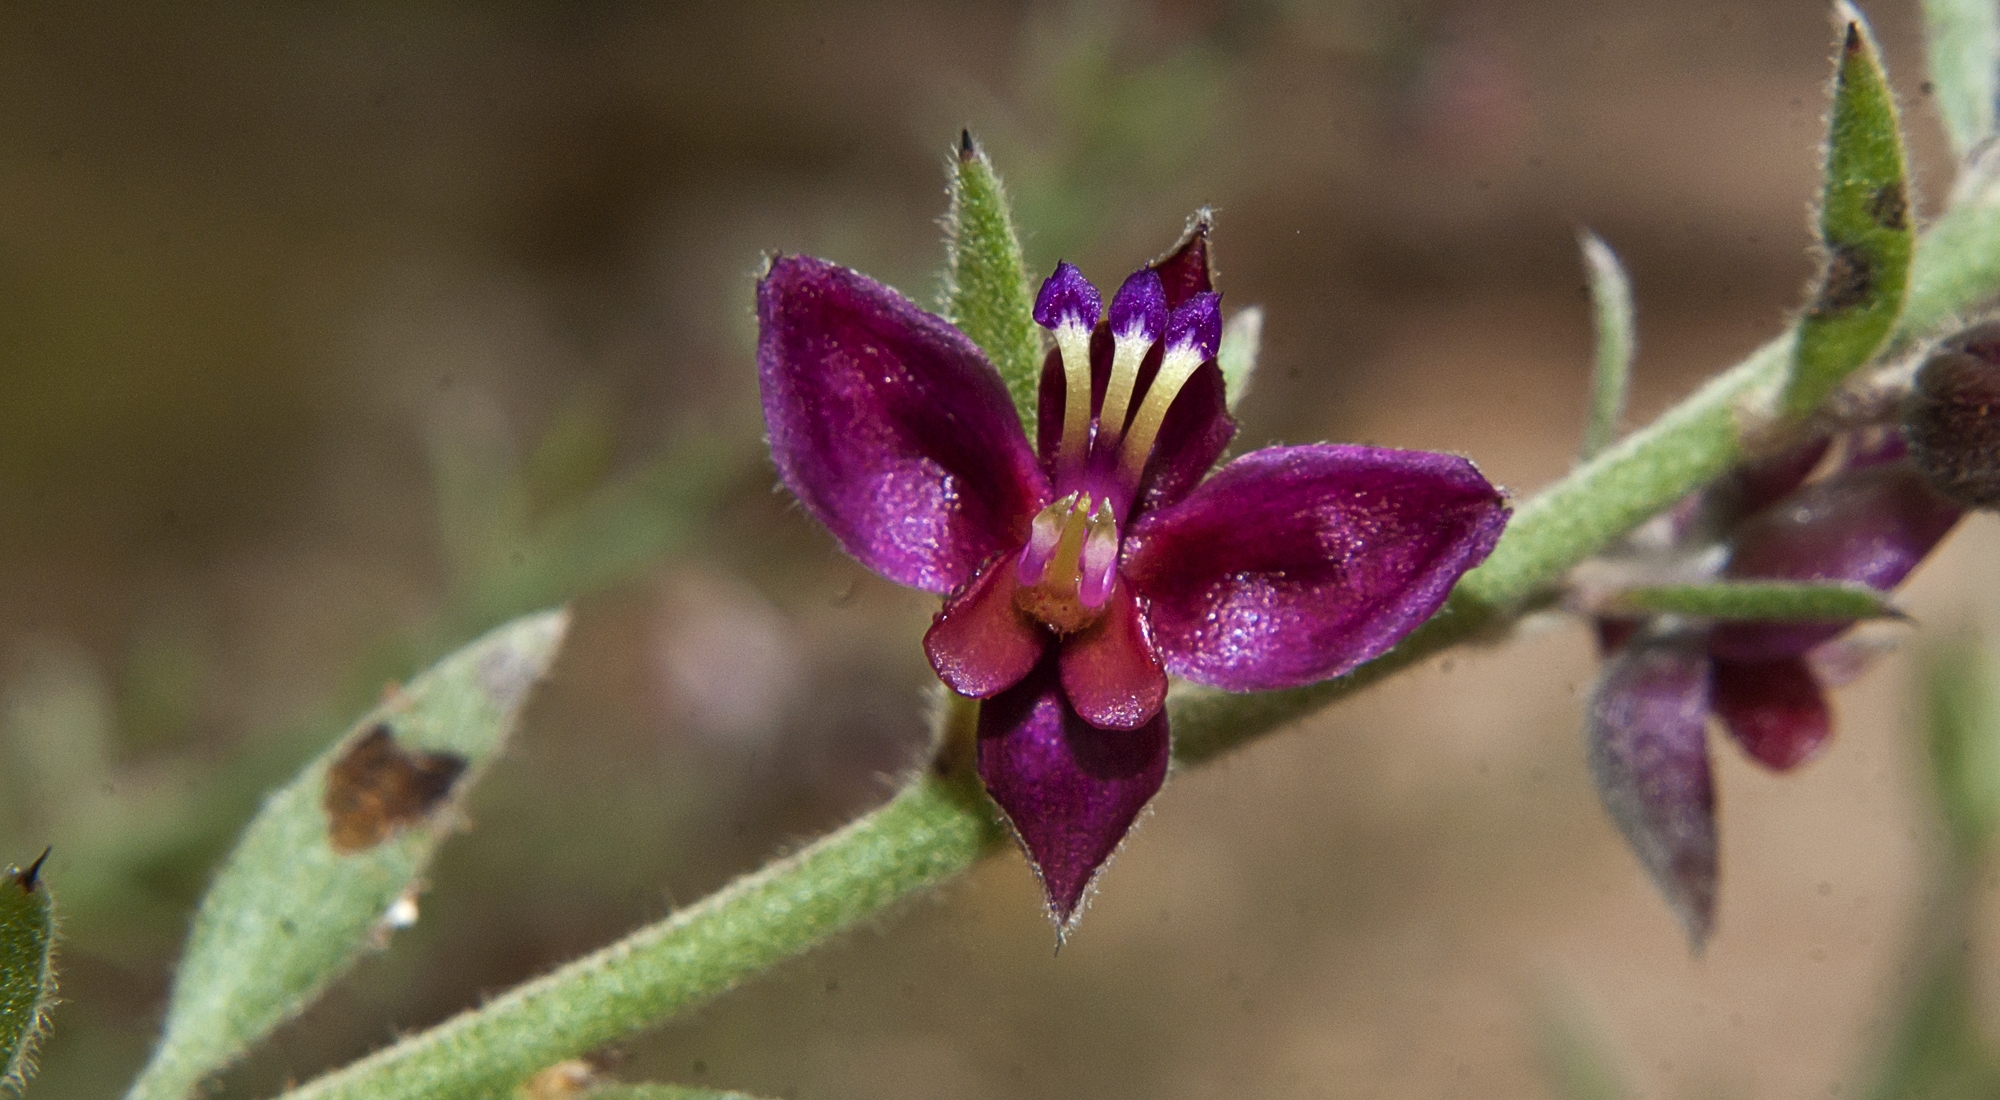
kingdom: Plantae
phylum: Tracheophyta
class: Magnoliopsida
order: Zygophyllales
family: Krameriaceae
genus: Krameria
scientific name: Krameria lanceolata
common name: Ratany
